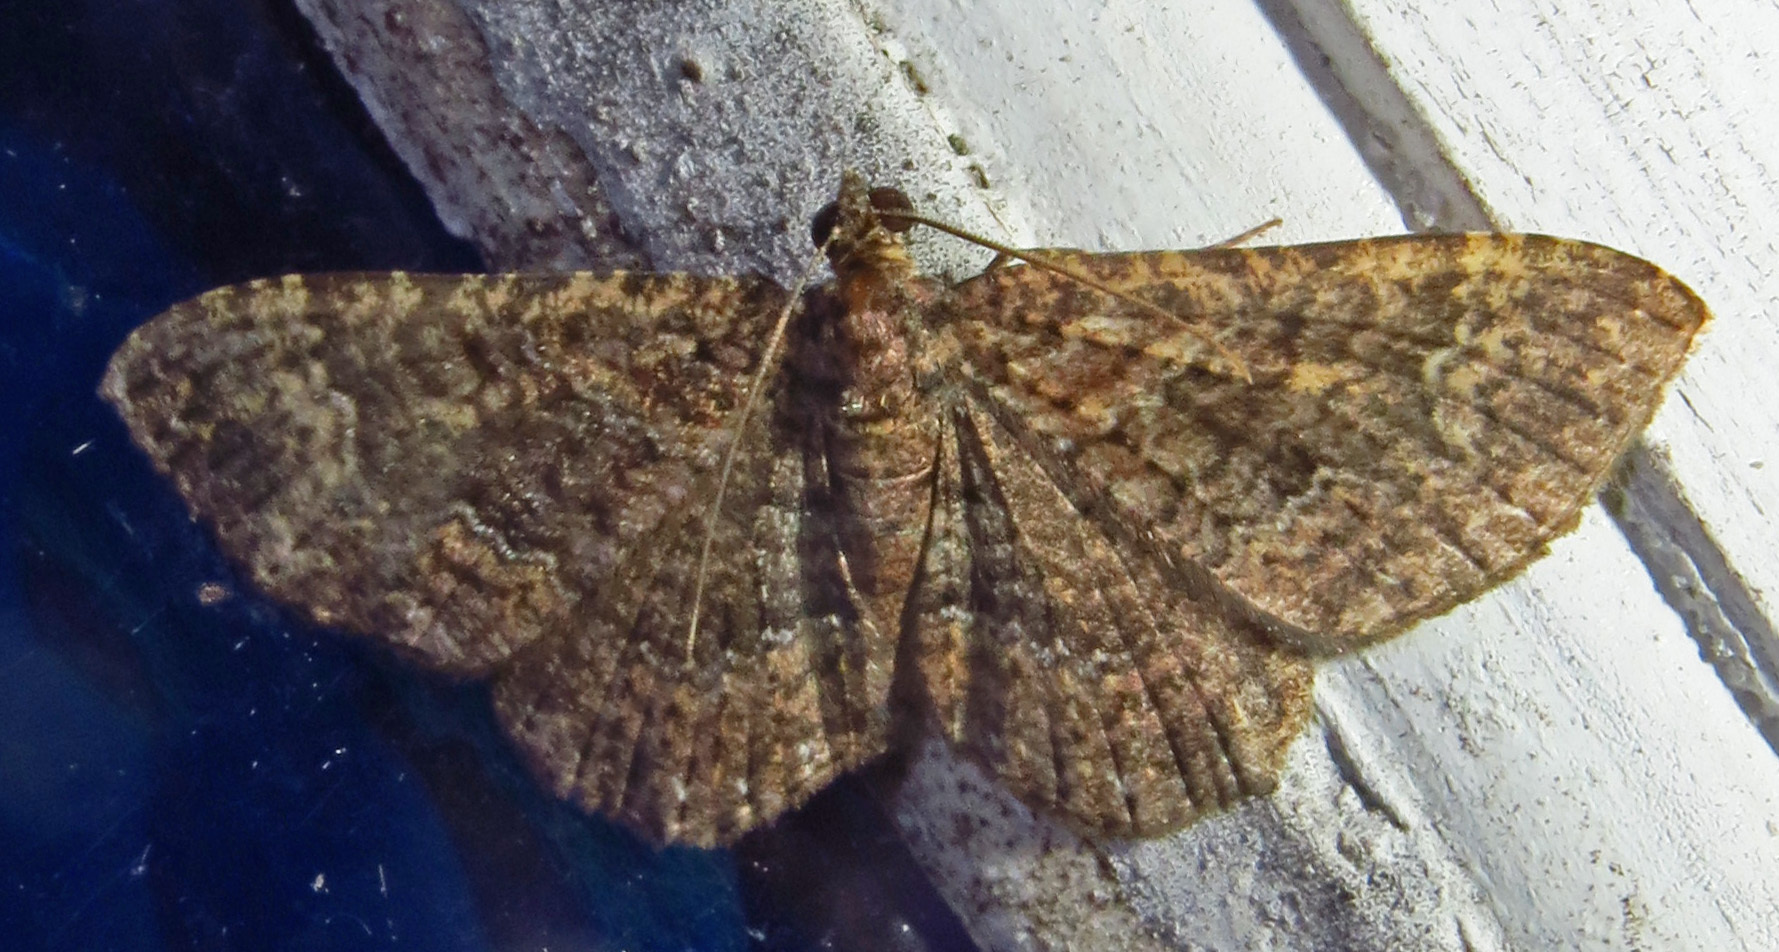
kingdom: Animalia
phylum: Arthropoda
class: Insecta
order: Lepidoptera
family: Geometridae
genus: Disclisioprocta
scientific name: Disclisioprocta stellata
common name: Somber carpet
